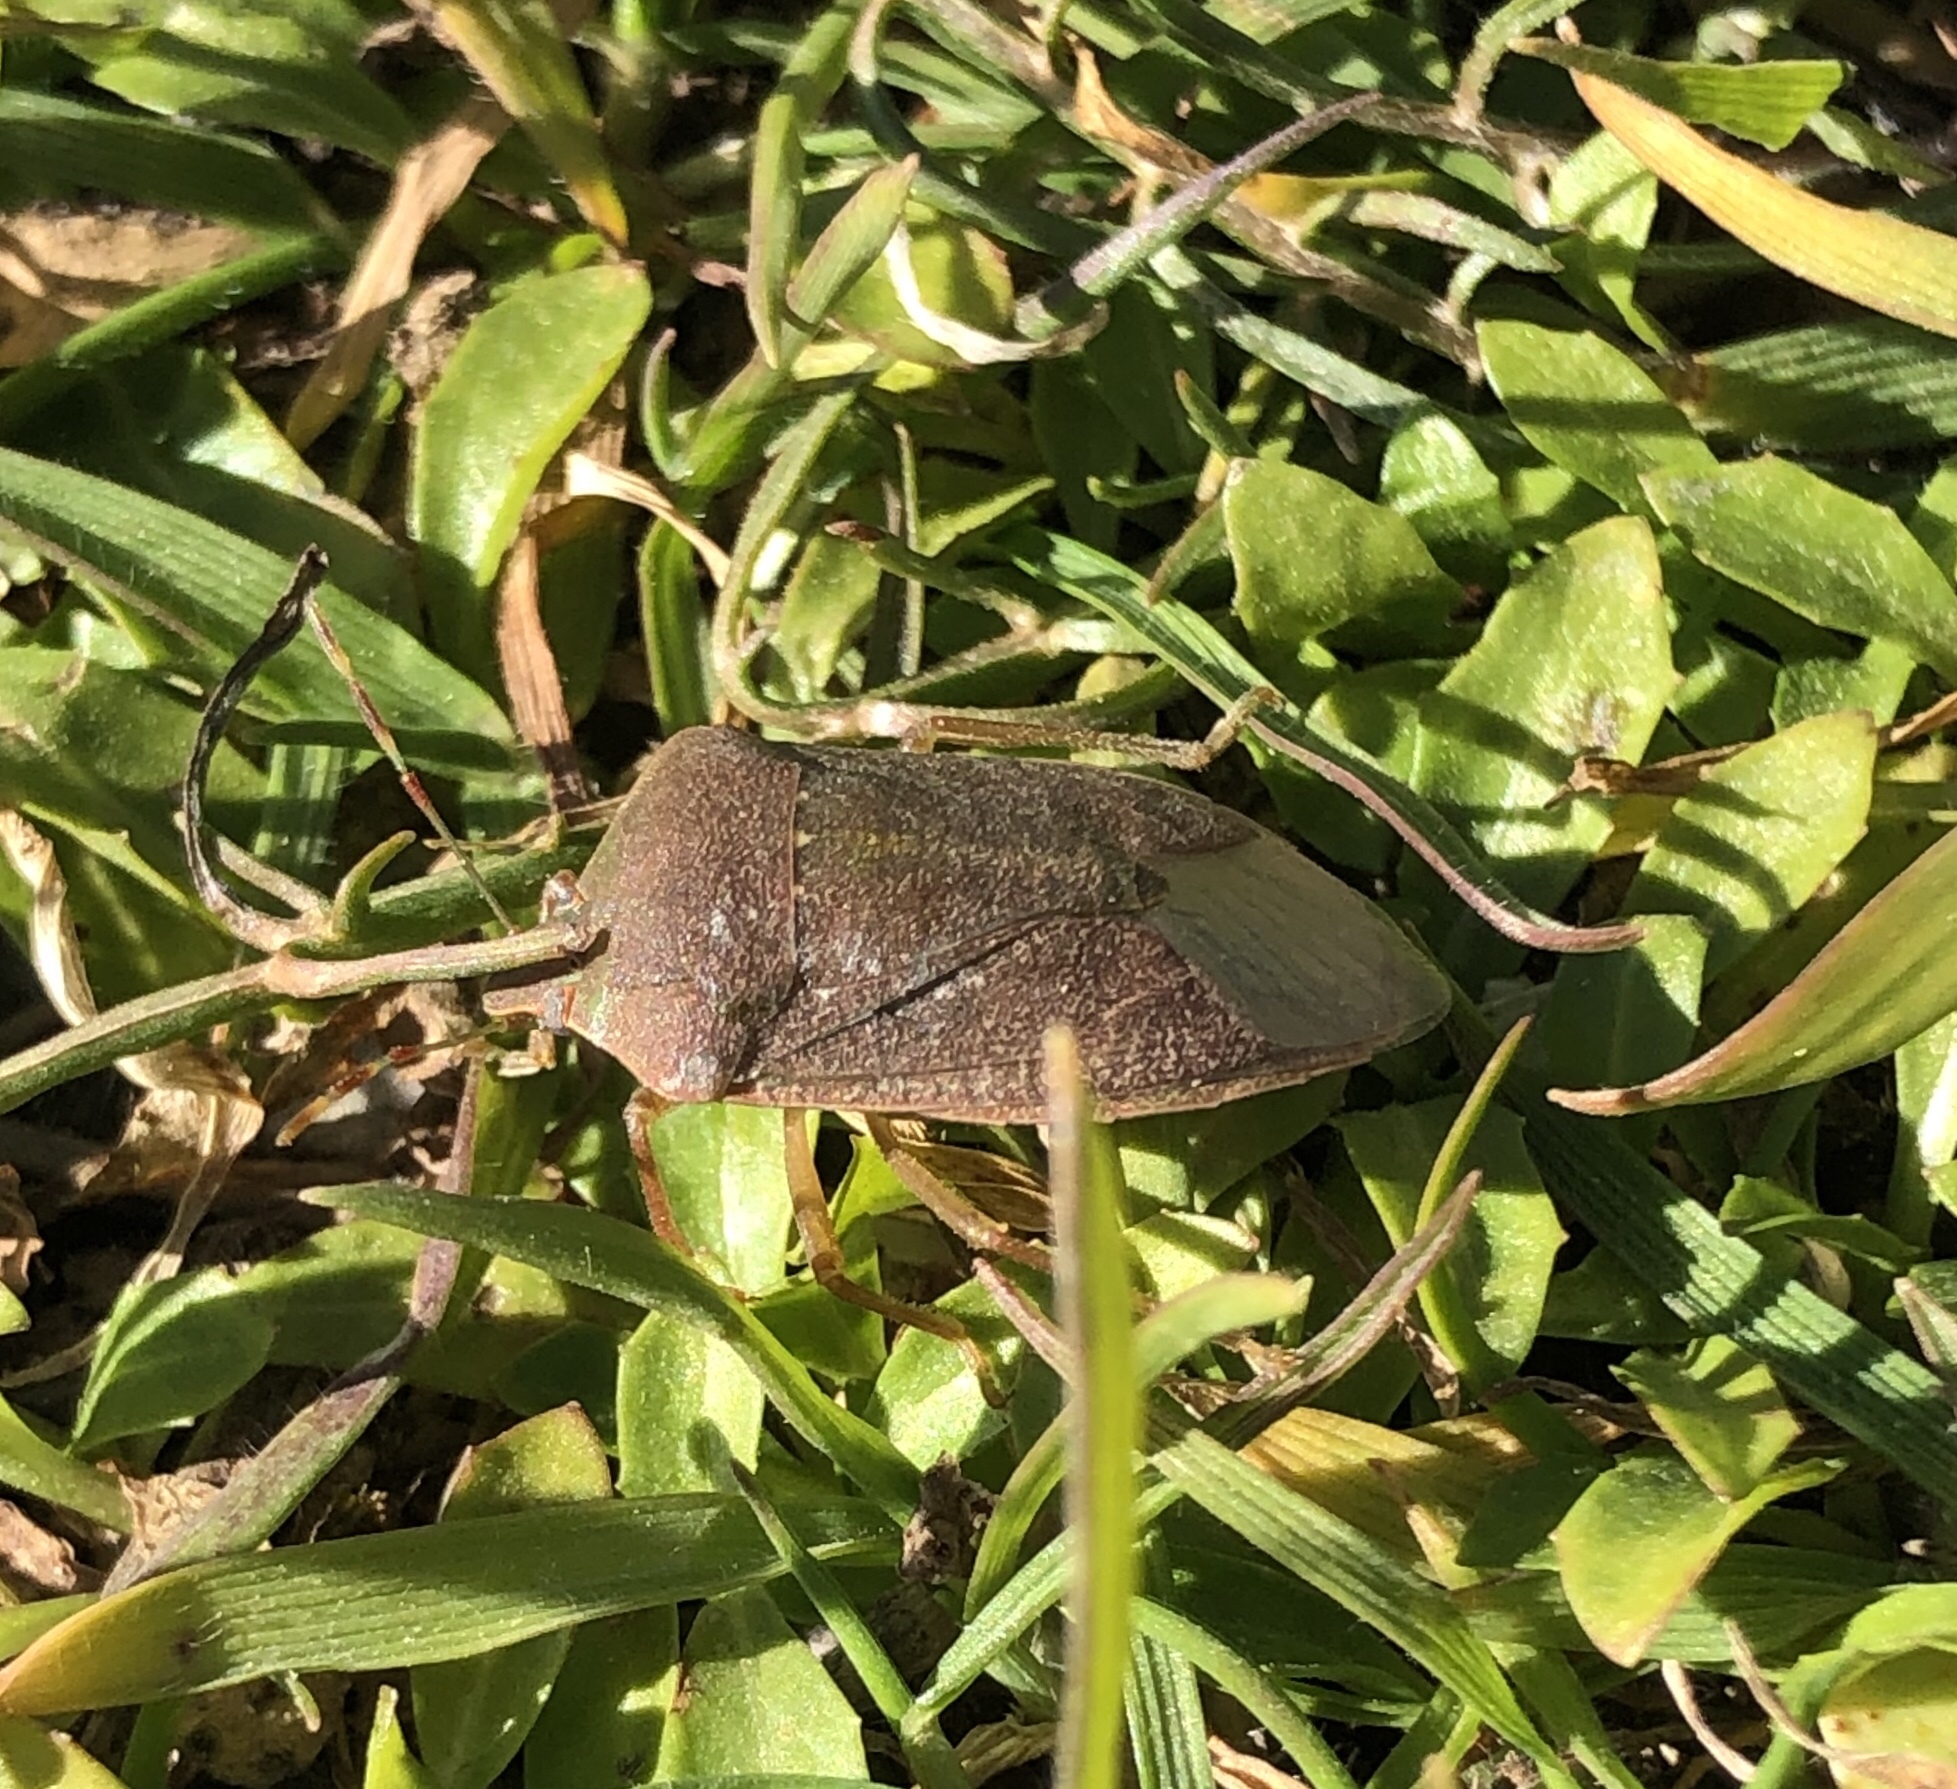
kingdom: Animalia
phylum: Arthropoda
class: Insecta
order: Hemiptera
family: Pentatomidae
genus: Nezara
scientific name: Nezara viridula
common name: Southern green stink bug
